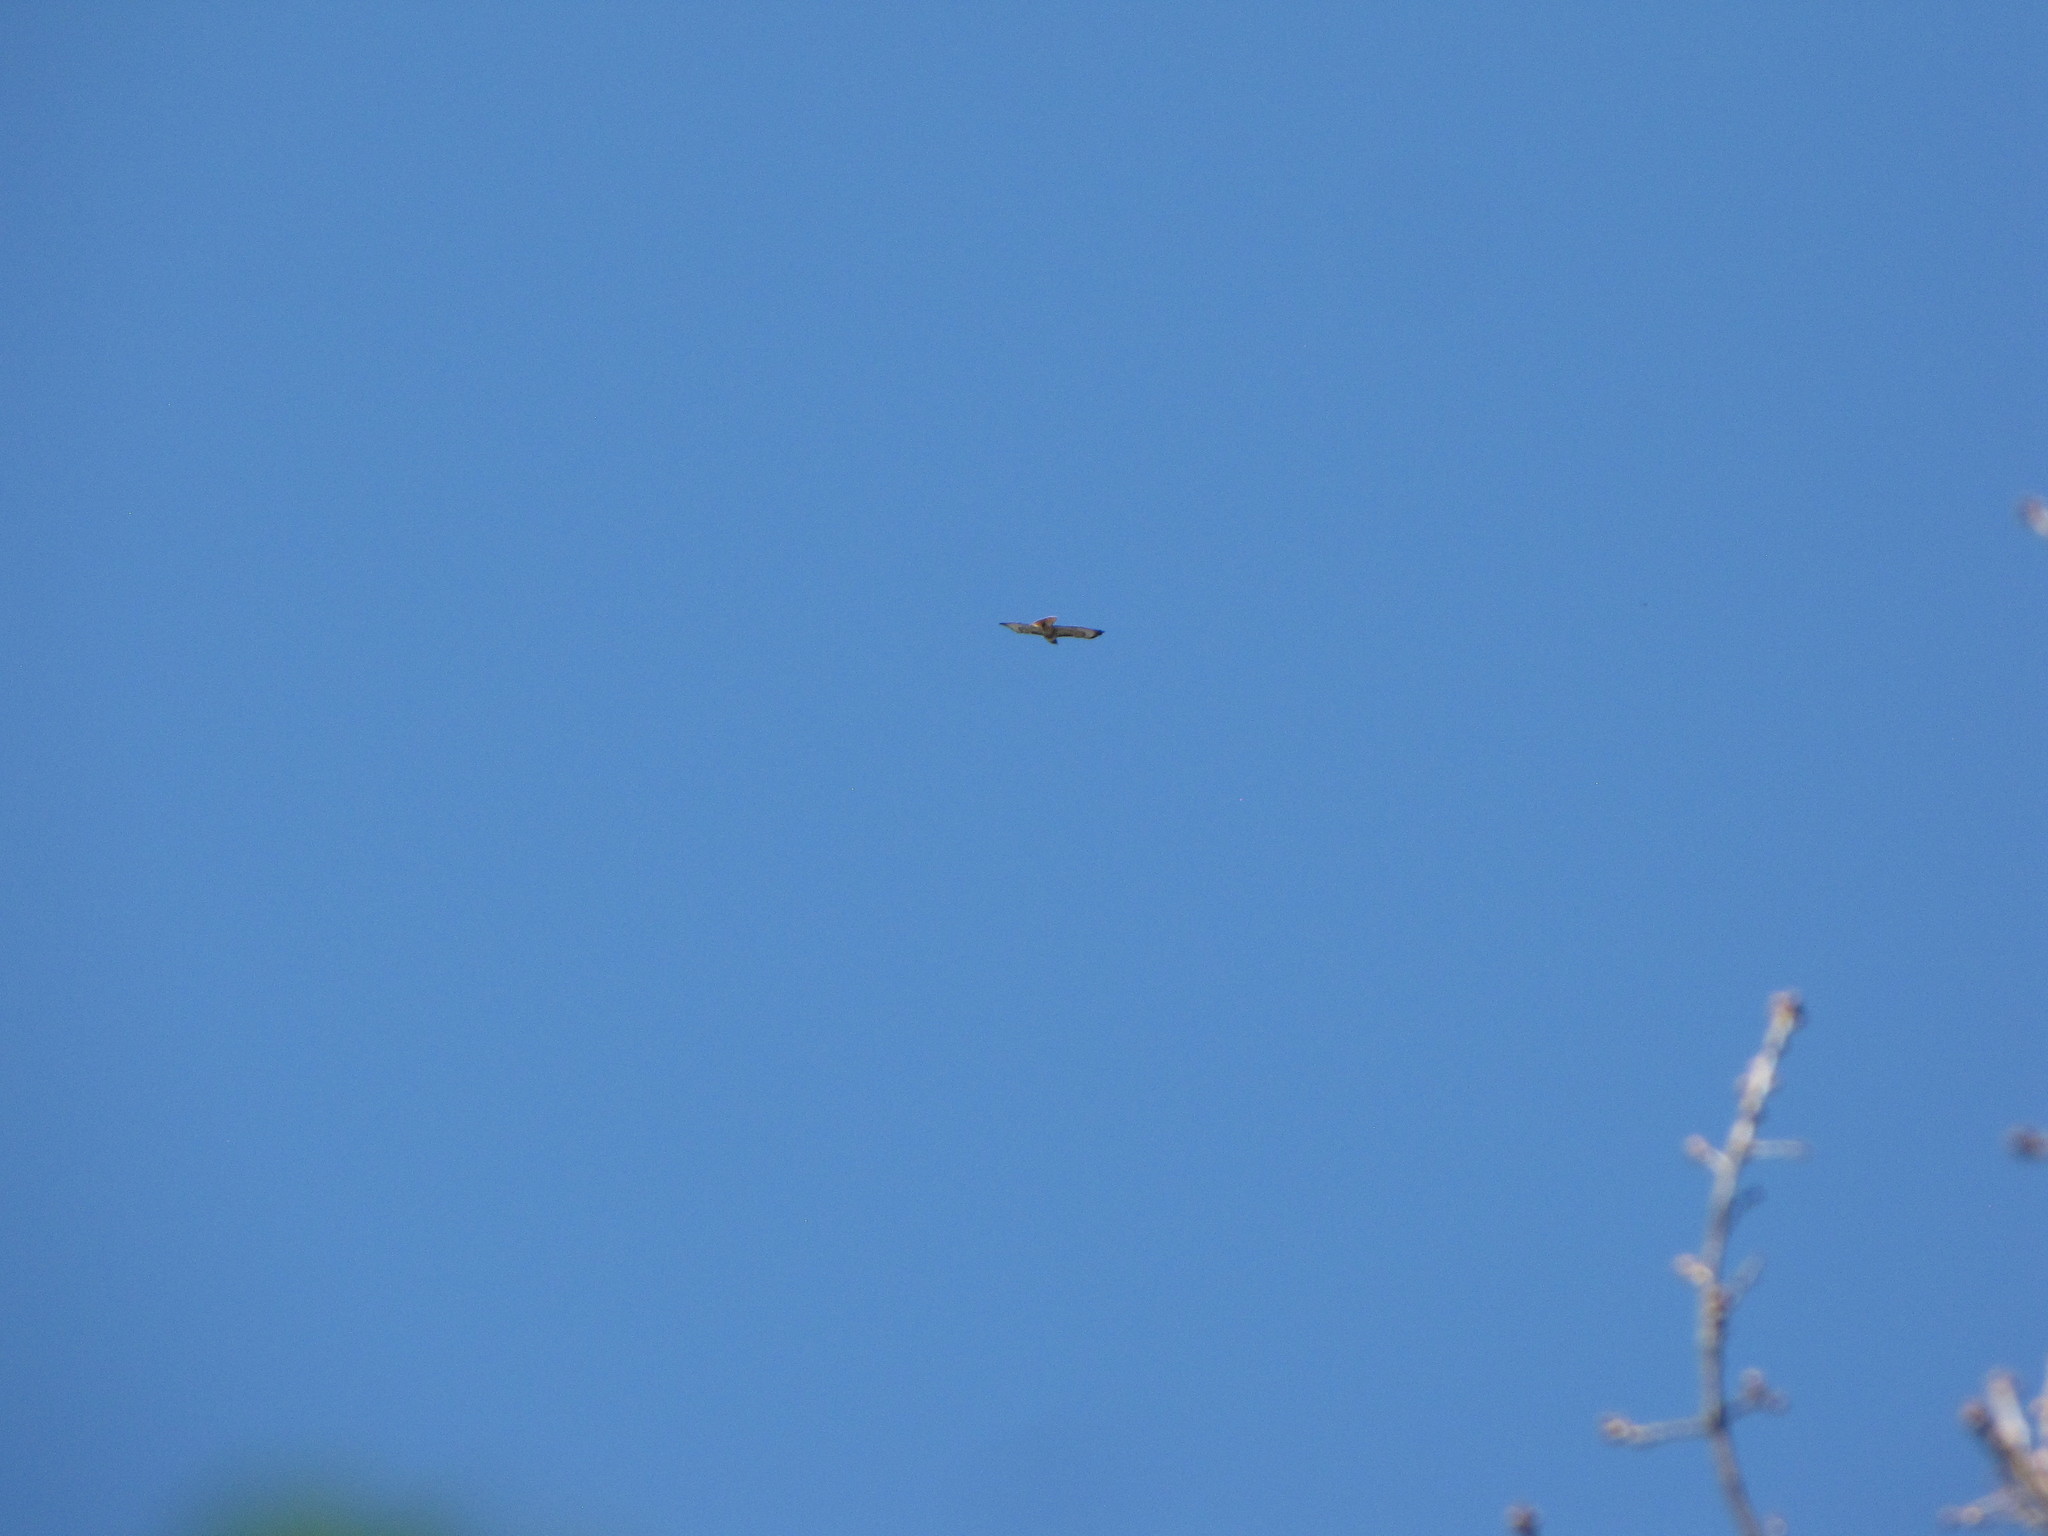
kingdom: Animalia
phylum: Chordata
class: Aves
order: Accipitriformes
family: Accipitridae
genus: Buteo
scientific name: Buteo jamaicensis
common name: Red-tailed hawk
